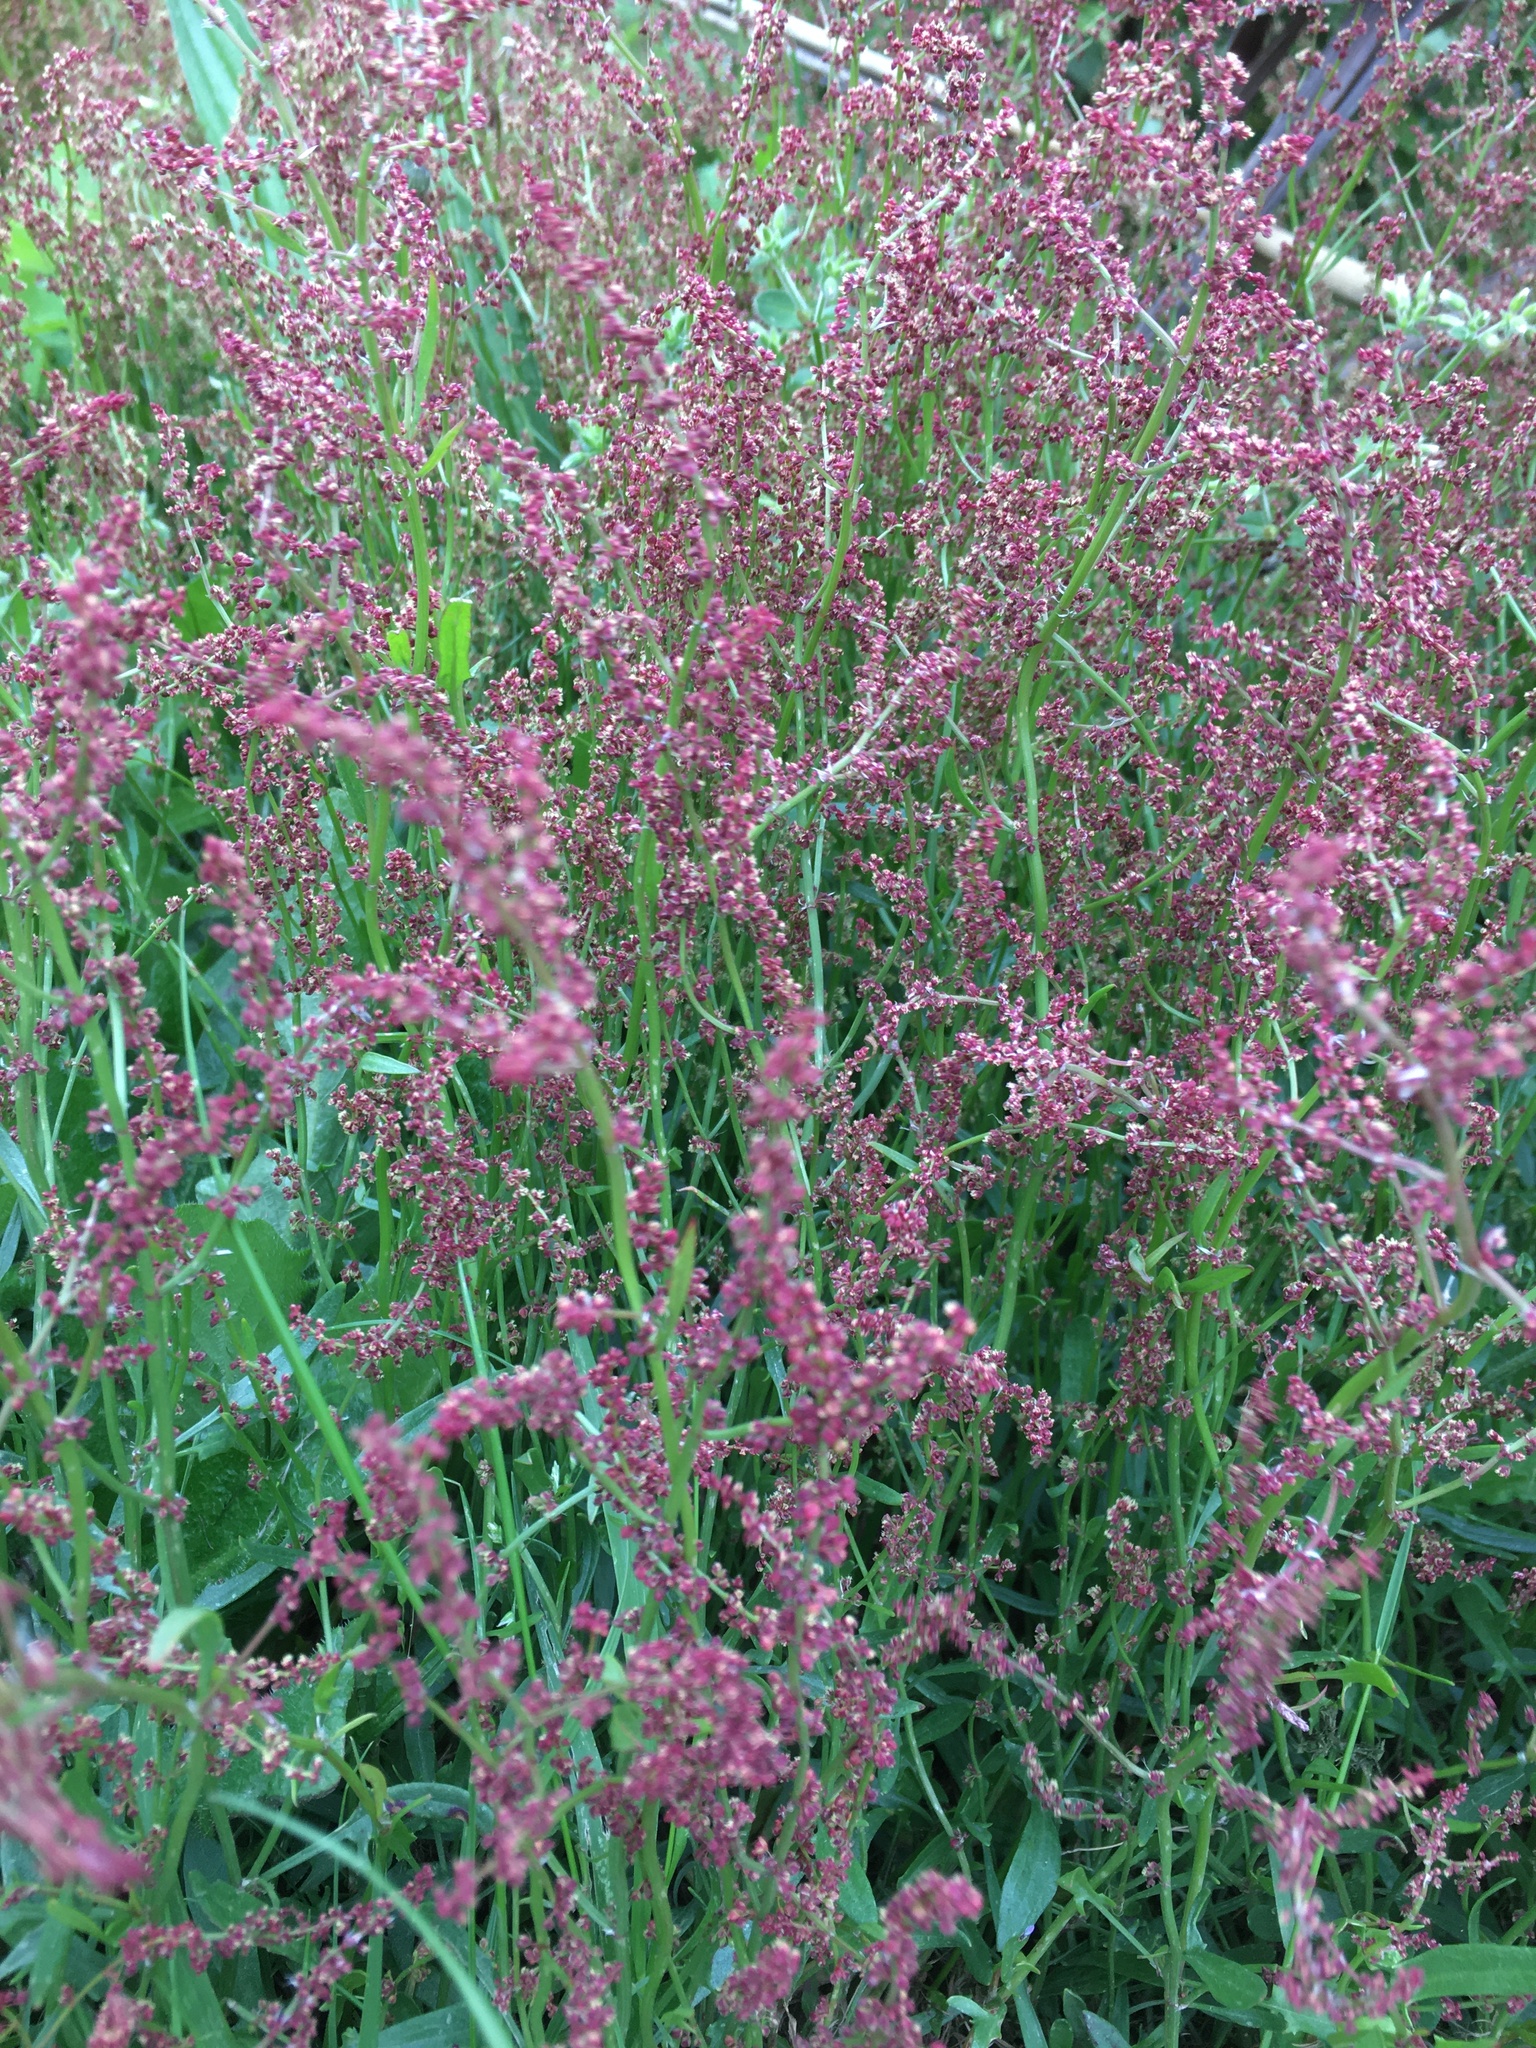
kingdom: Plantae
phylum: Tracheophyta
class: Magnoliopsida
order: Caryophyllales
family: Polygonaceae
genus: Rumex
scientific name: Rumex acetosella
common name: Common sheep sorrel
